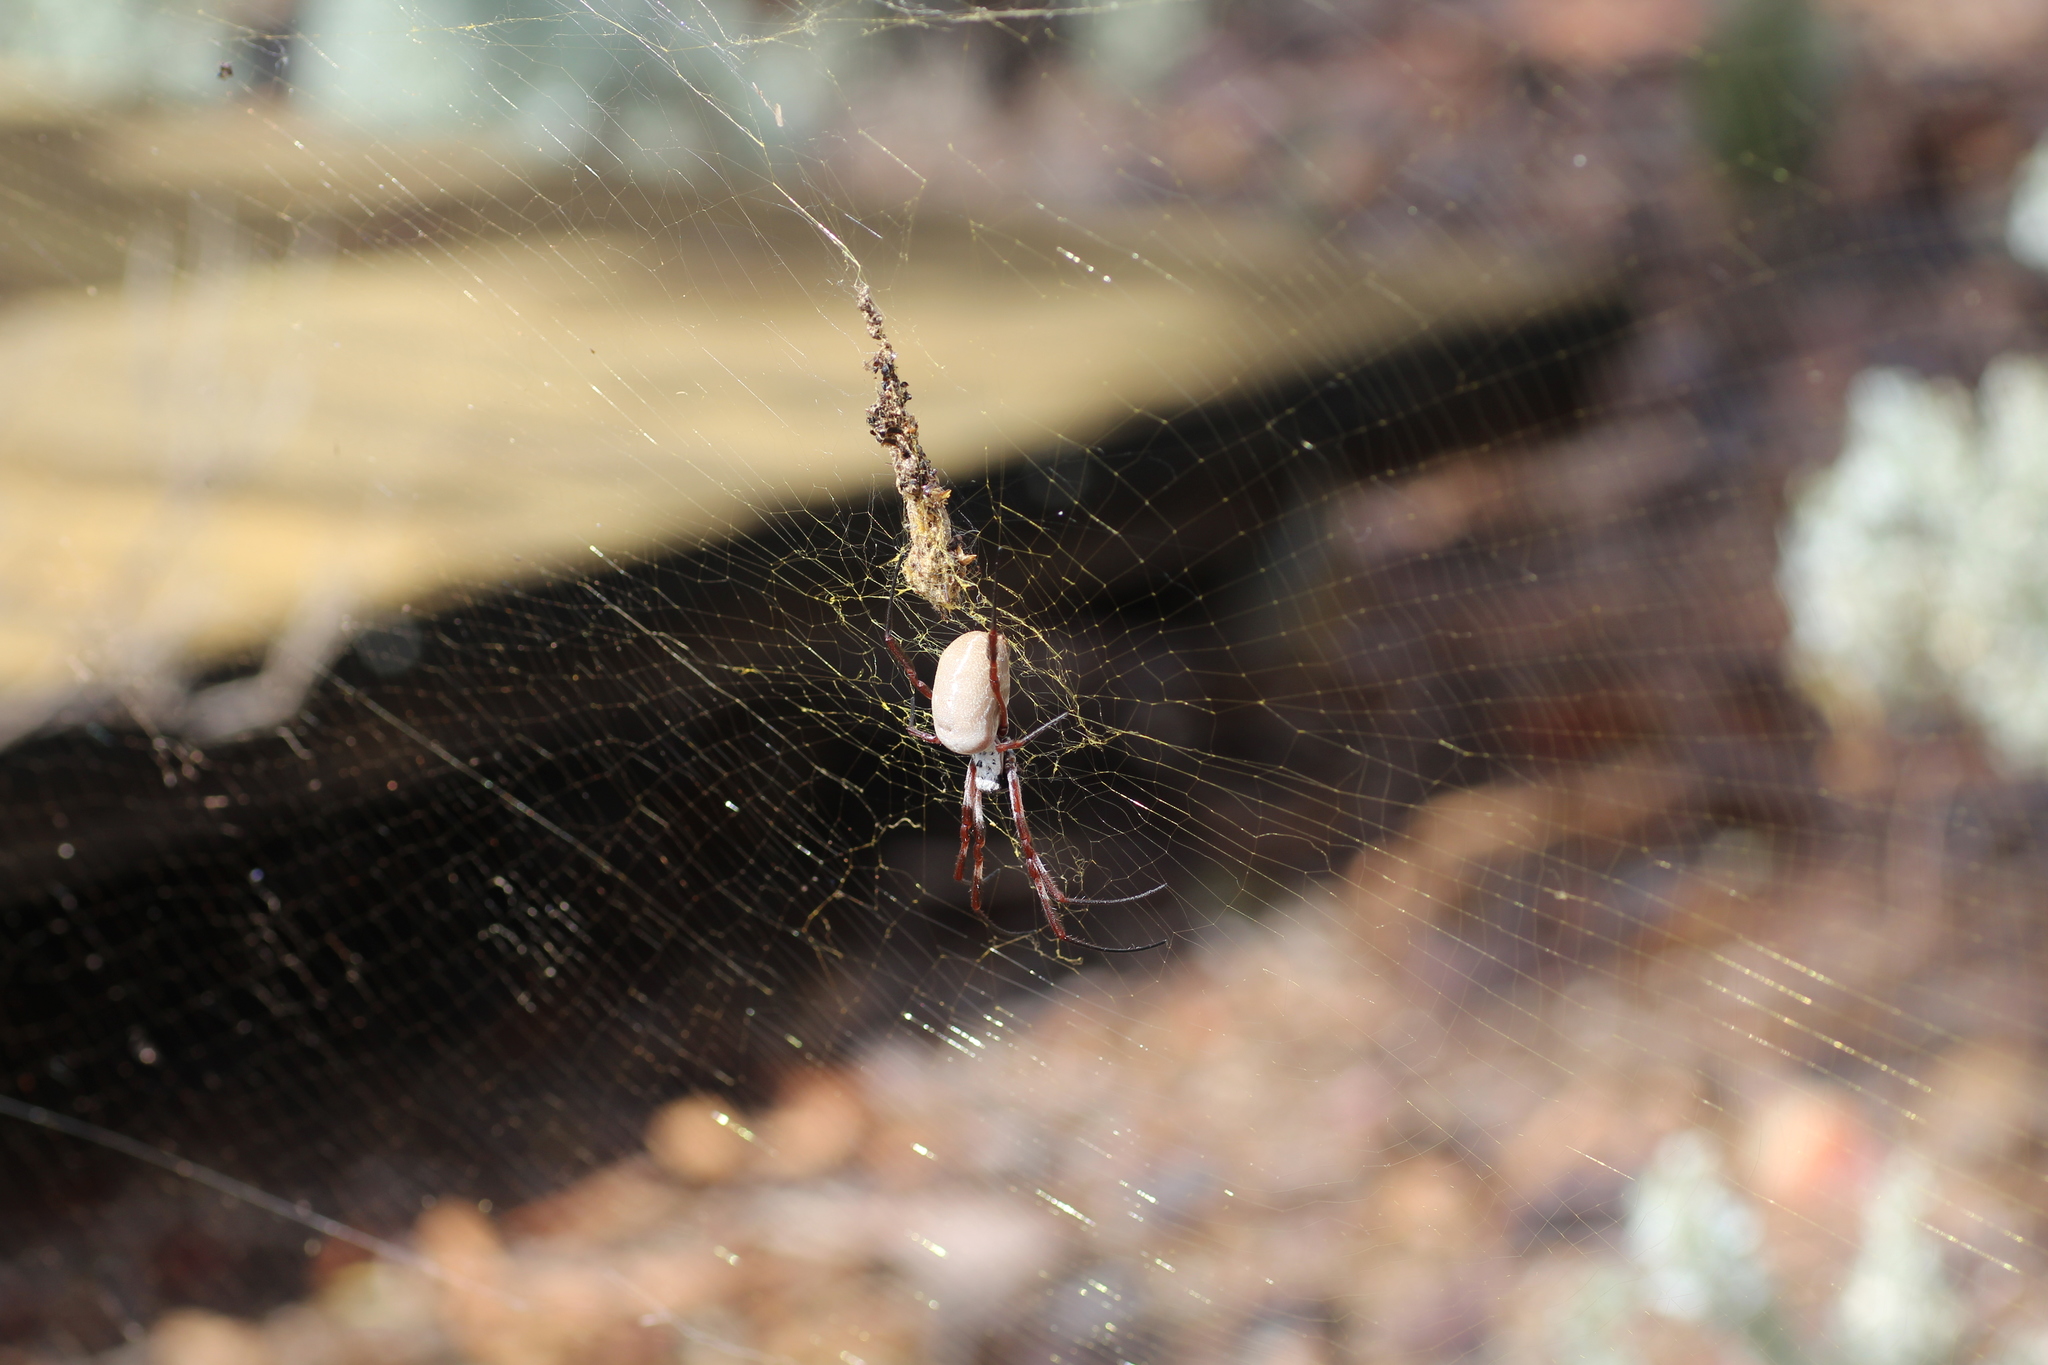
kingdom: Animalia
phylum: Arthropoda
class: Arachnida
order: Araneae
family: Araneidae
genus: Trichonephila
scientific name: Trichonephila edulis
